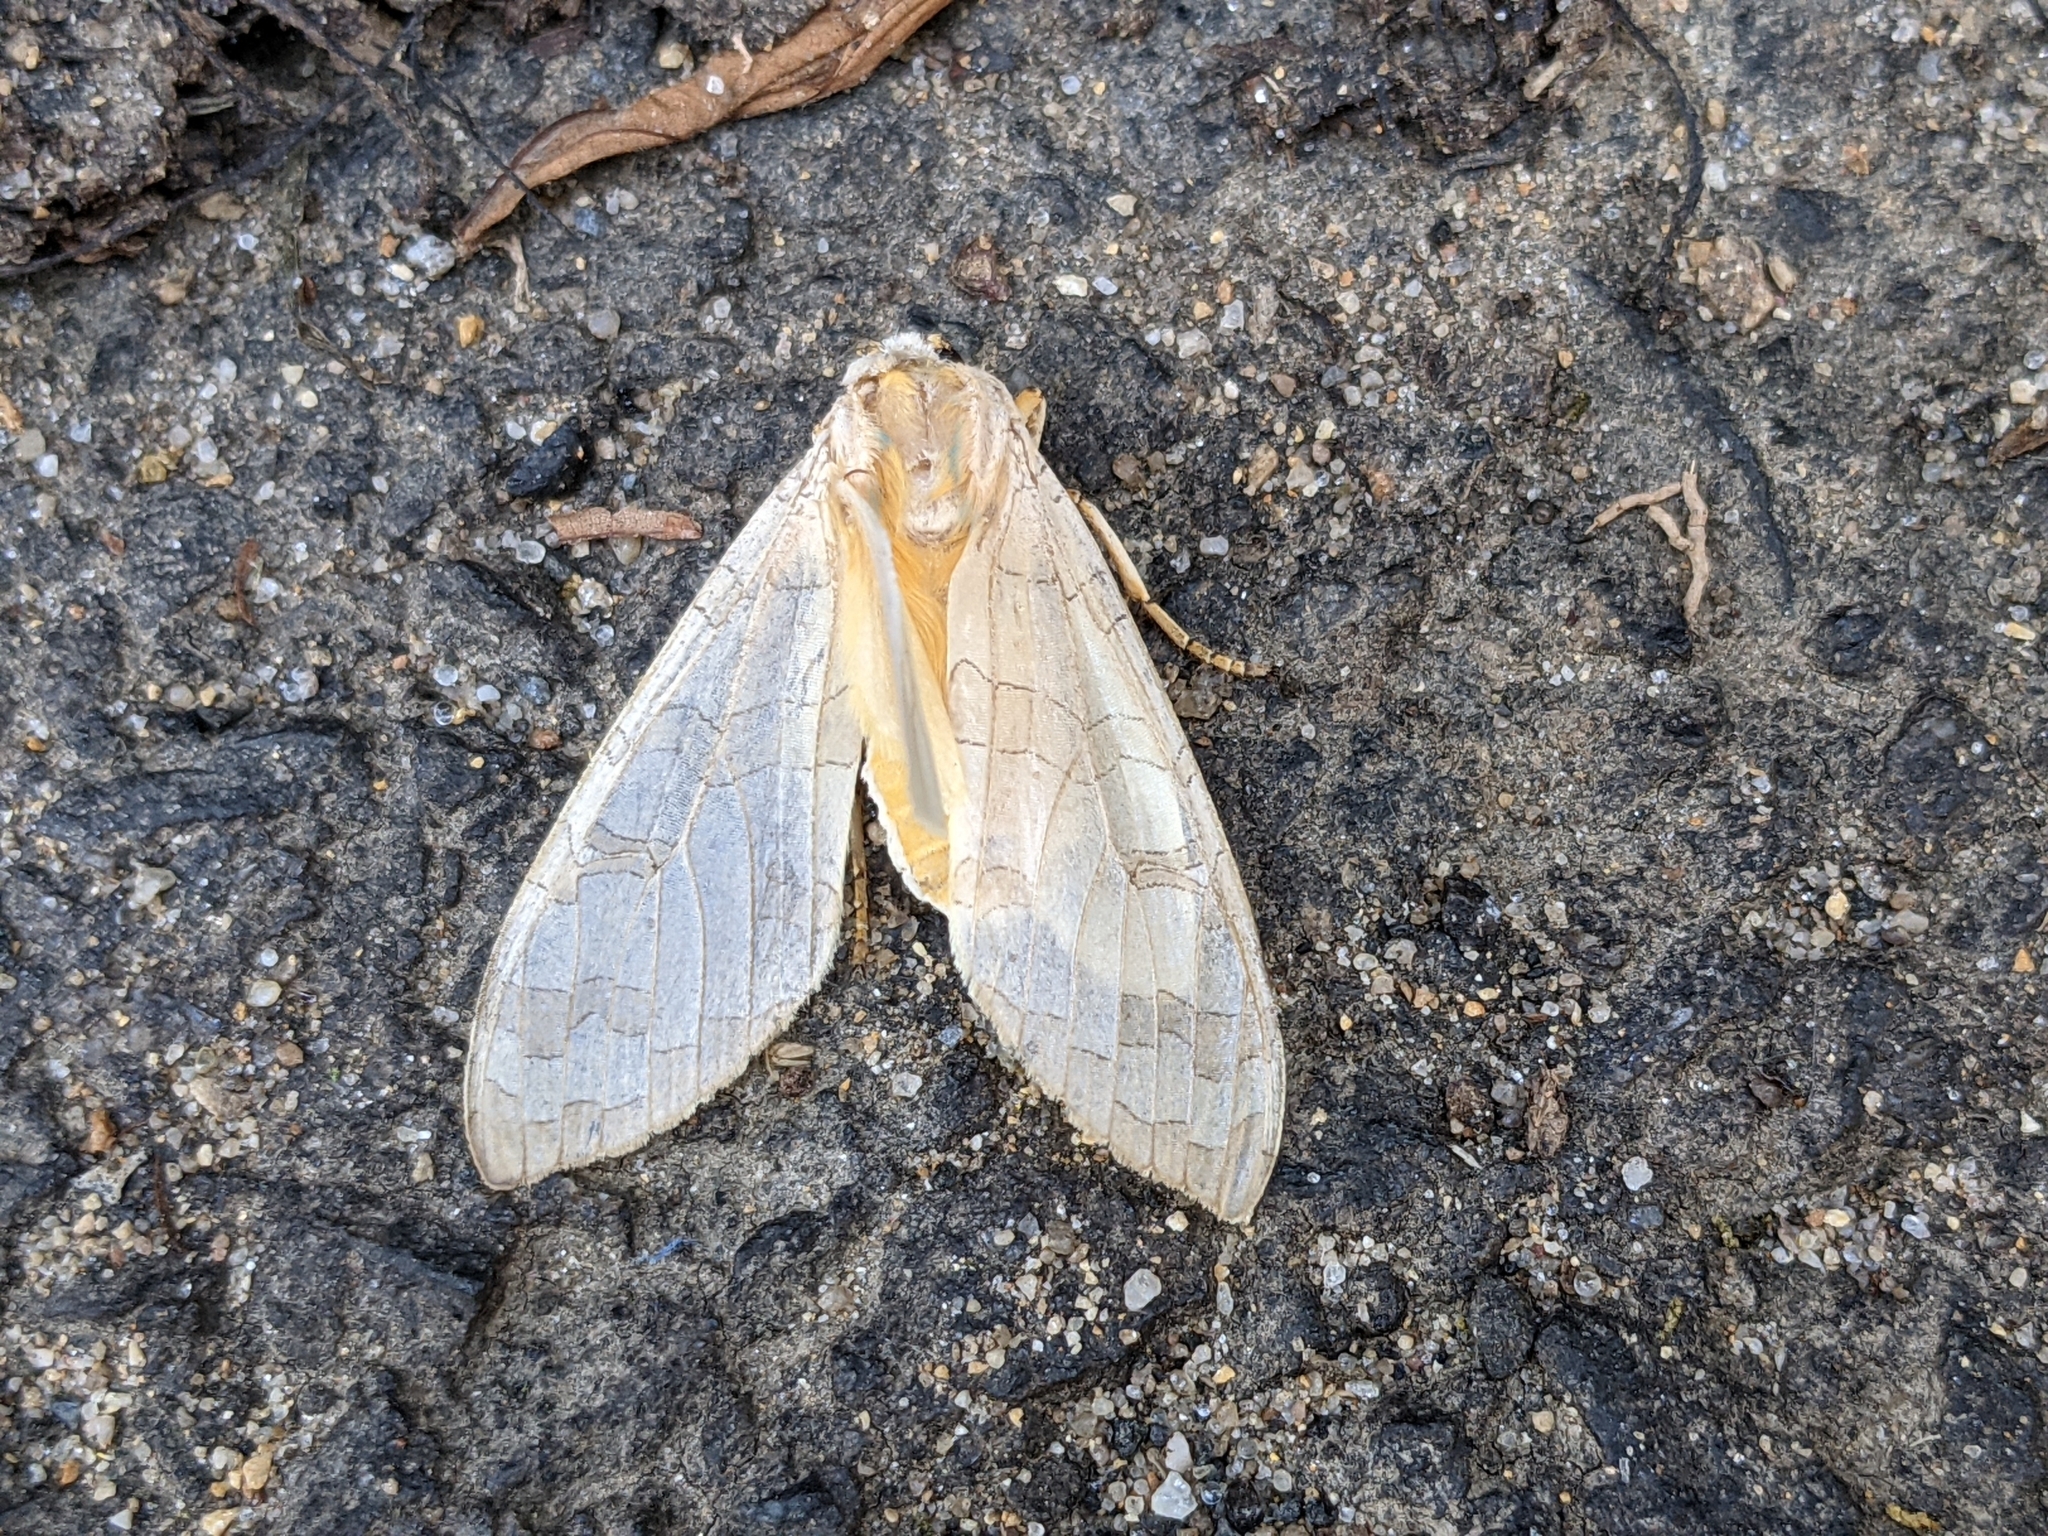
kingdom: Animalia
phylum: Arthropoda
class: Insecta
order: Lepidoptera
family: Erebidae
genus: Halysidota
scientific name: Halysidota
